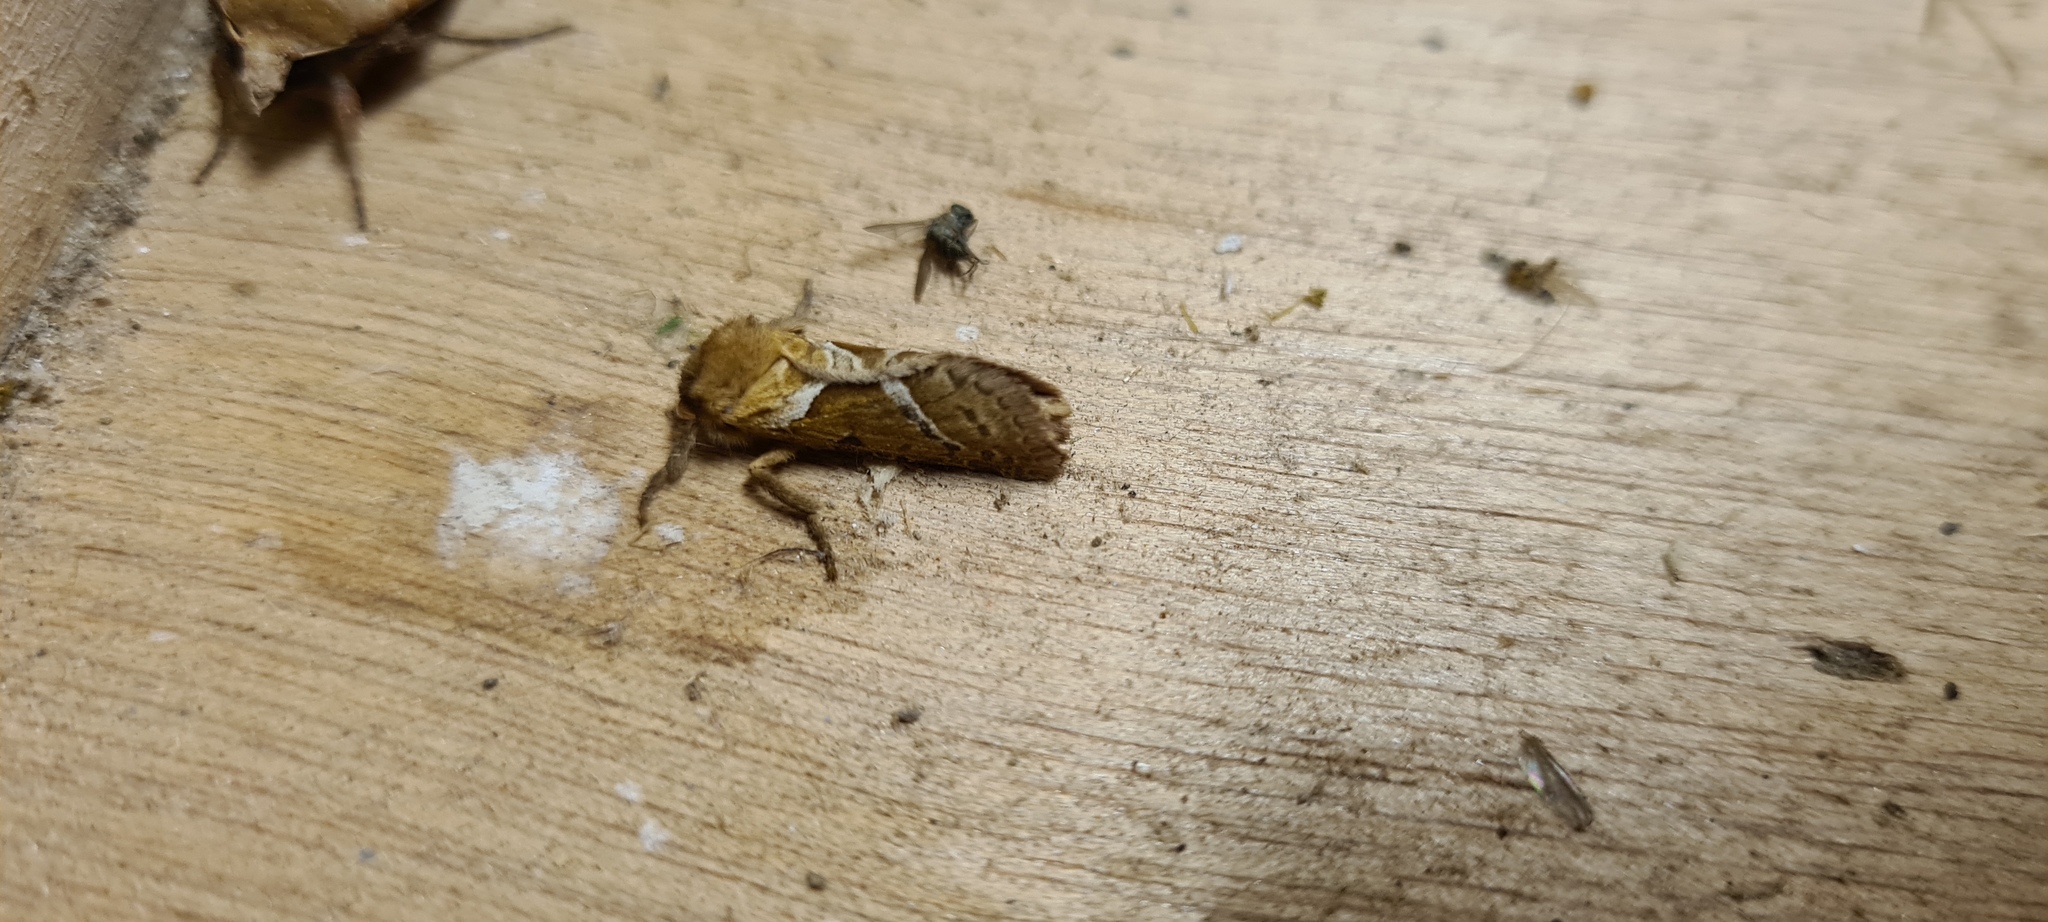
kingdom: Animalia
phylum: Arthropoda
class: Insecta
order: Lepidoptera
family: Hepialidae
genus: Triodia
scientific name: Triodia sylvina
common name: Orange swift
